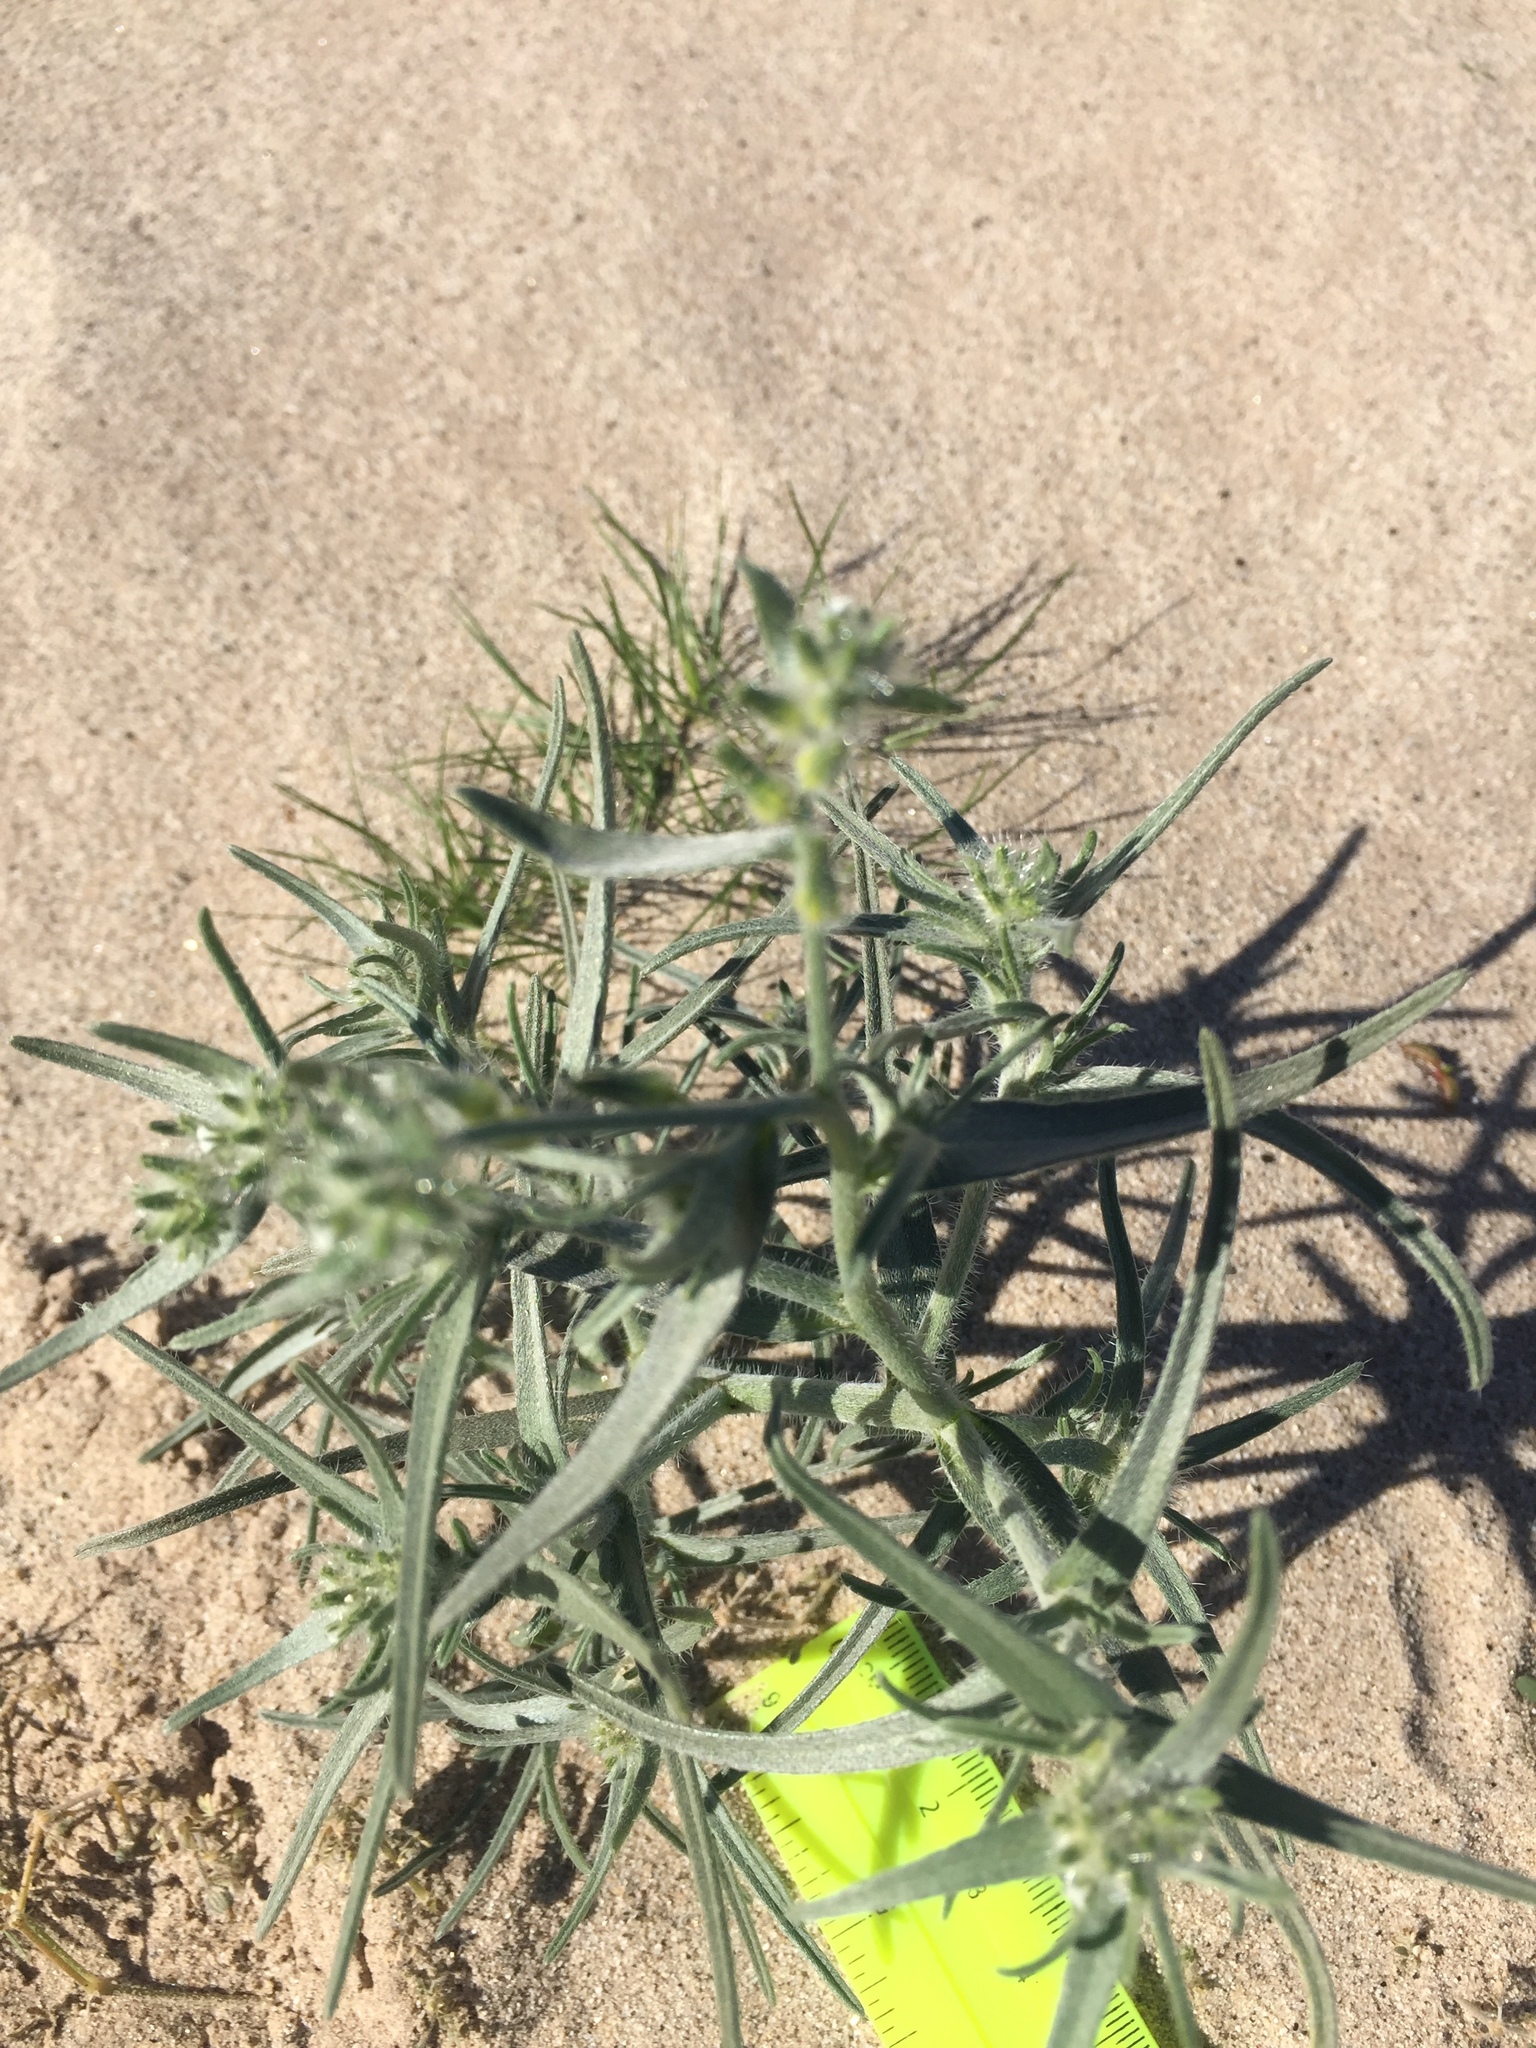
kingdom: Plantae
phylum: Tracheophyta
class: Magnoliopsida
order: Boraginales
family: Boraginaceae
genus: Johnstonella
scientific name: Johnstonella costata
